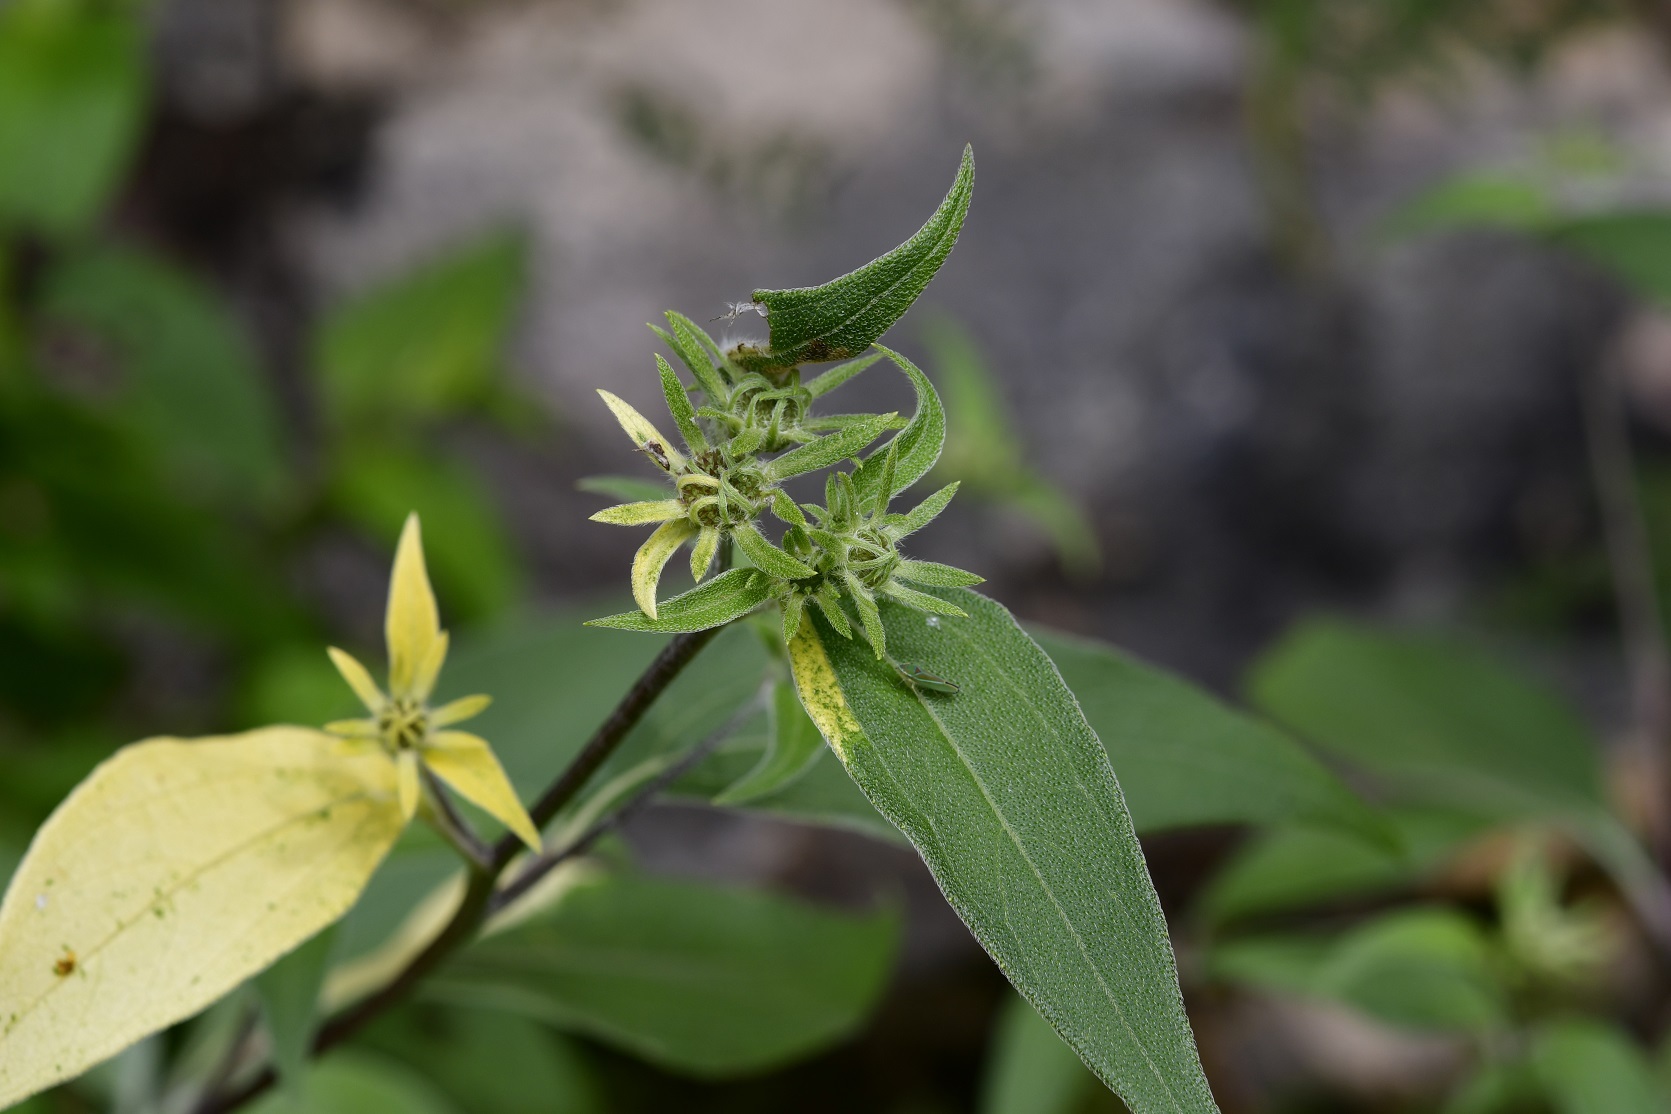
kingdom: Plantae
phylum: Tracheophyta
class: Magnoliopsida
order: Asterales
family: Asteraceae
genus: Verbesina
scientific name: Verbesina hypoglauca
